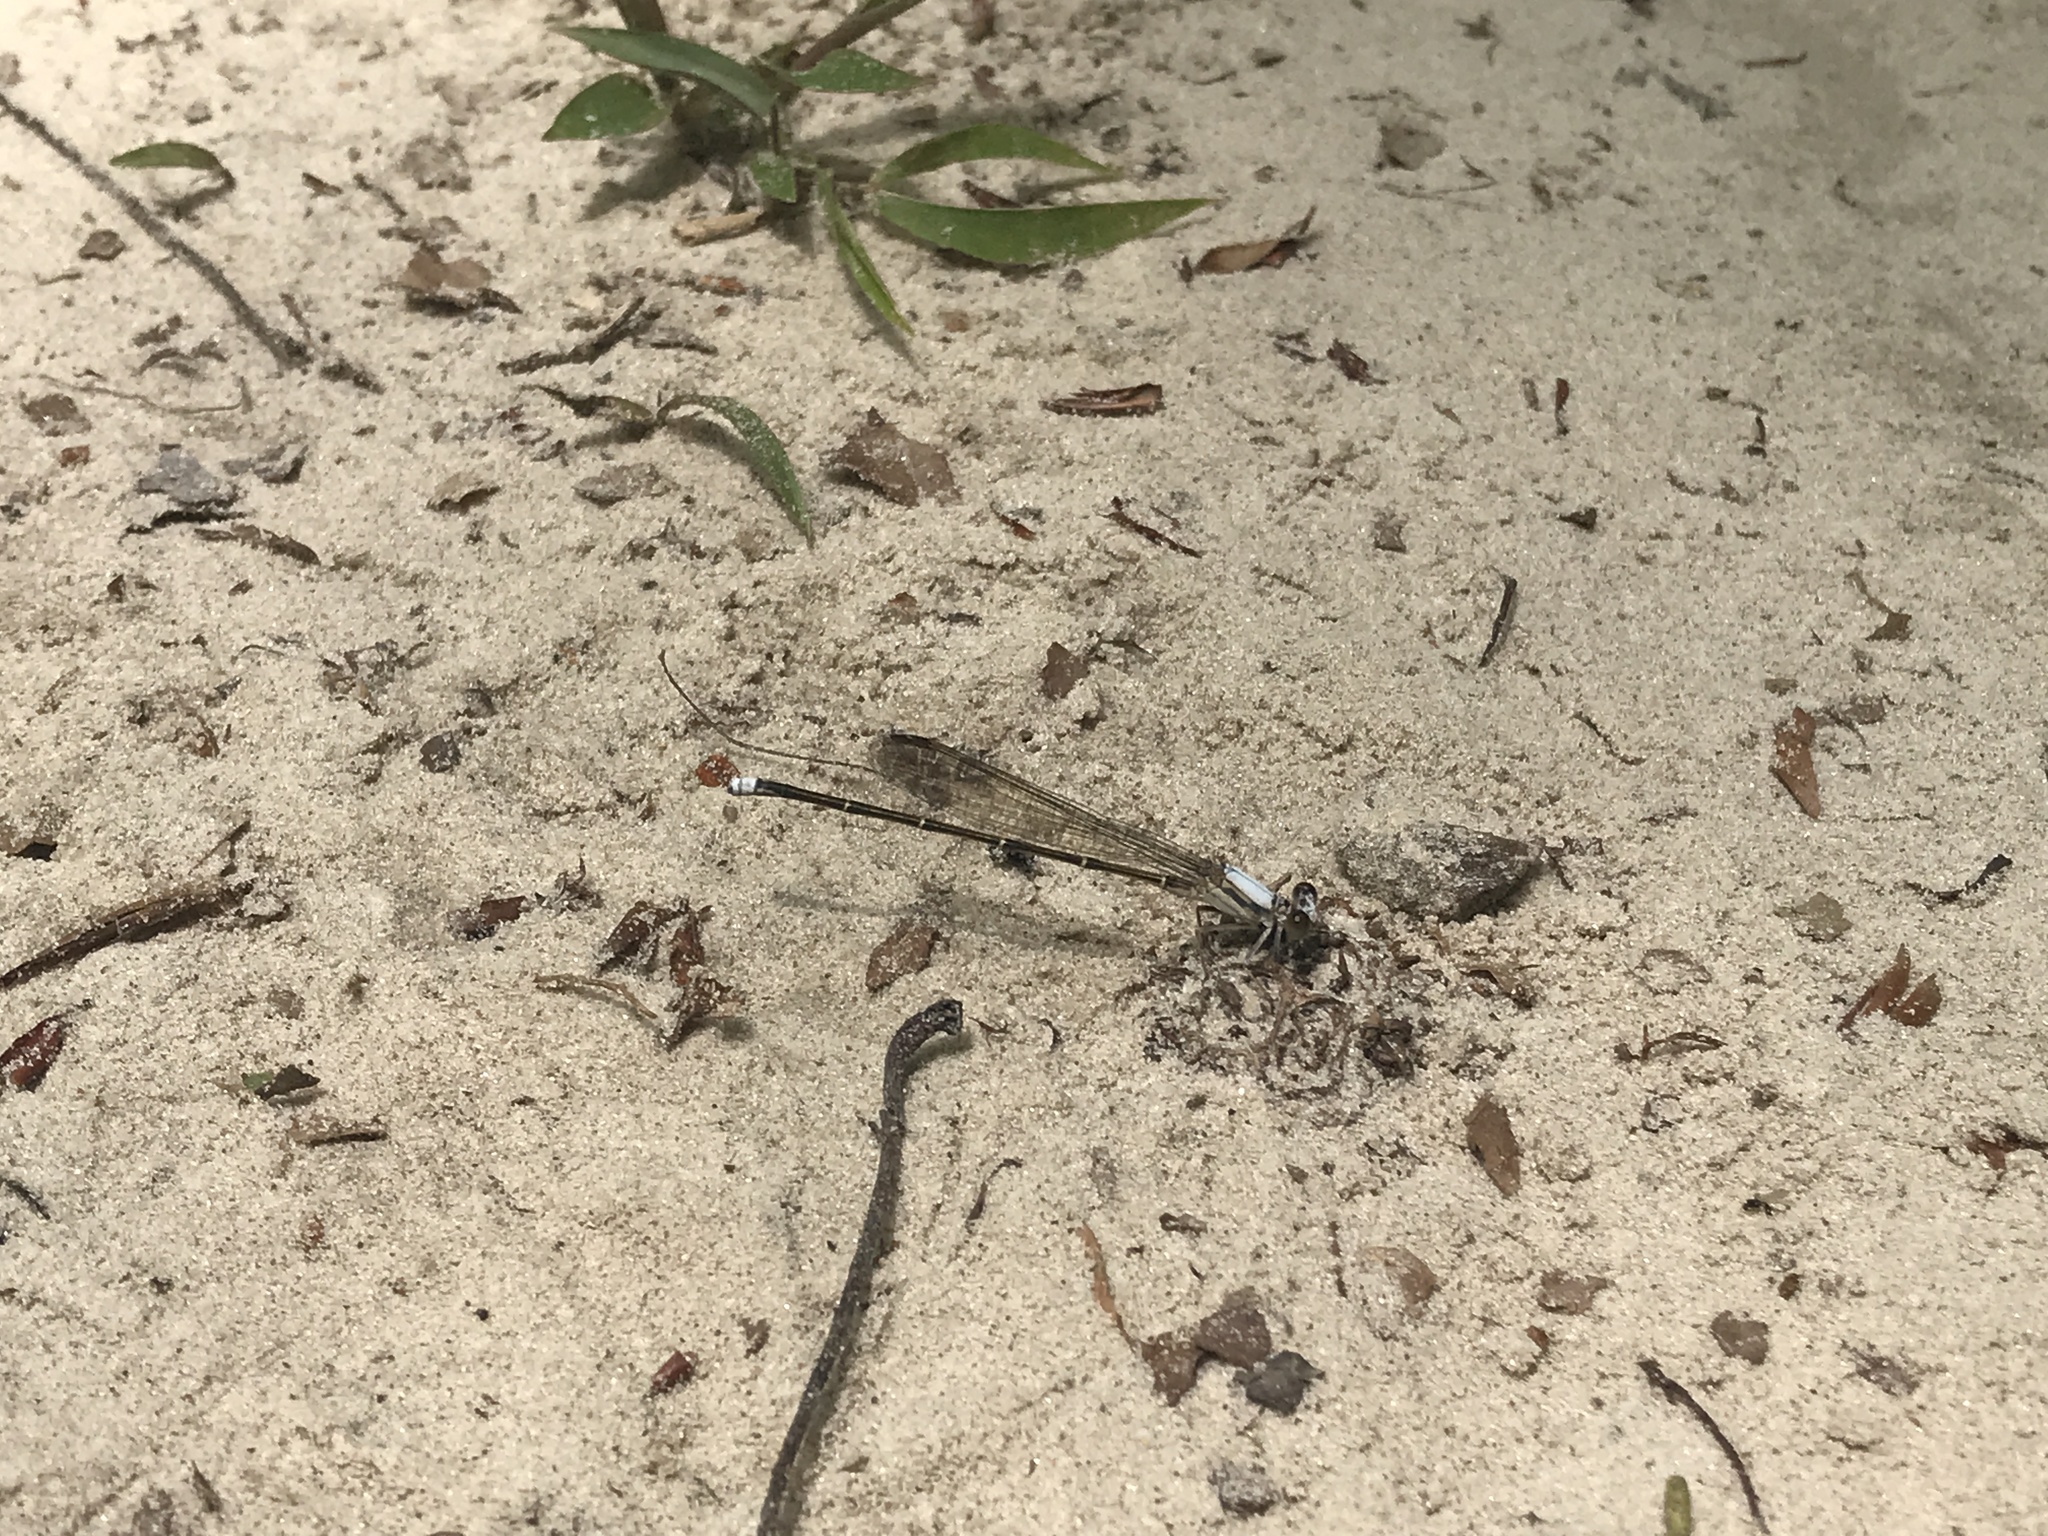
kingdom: Animalia
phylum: Arthropoda
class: Insecta
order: Odonata
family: Coenagrionidae
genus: Argia
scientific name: Argia moesta
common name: Powdered dancer
